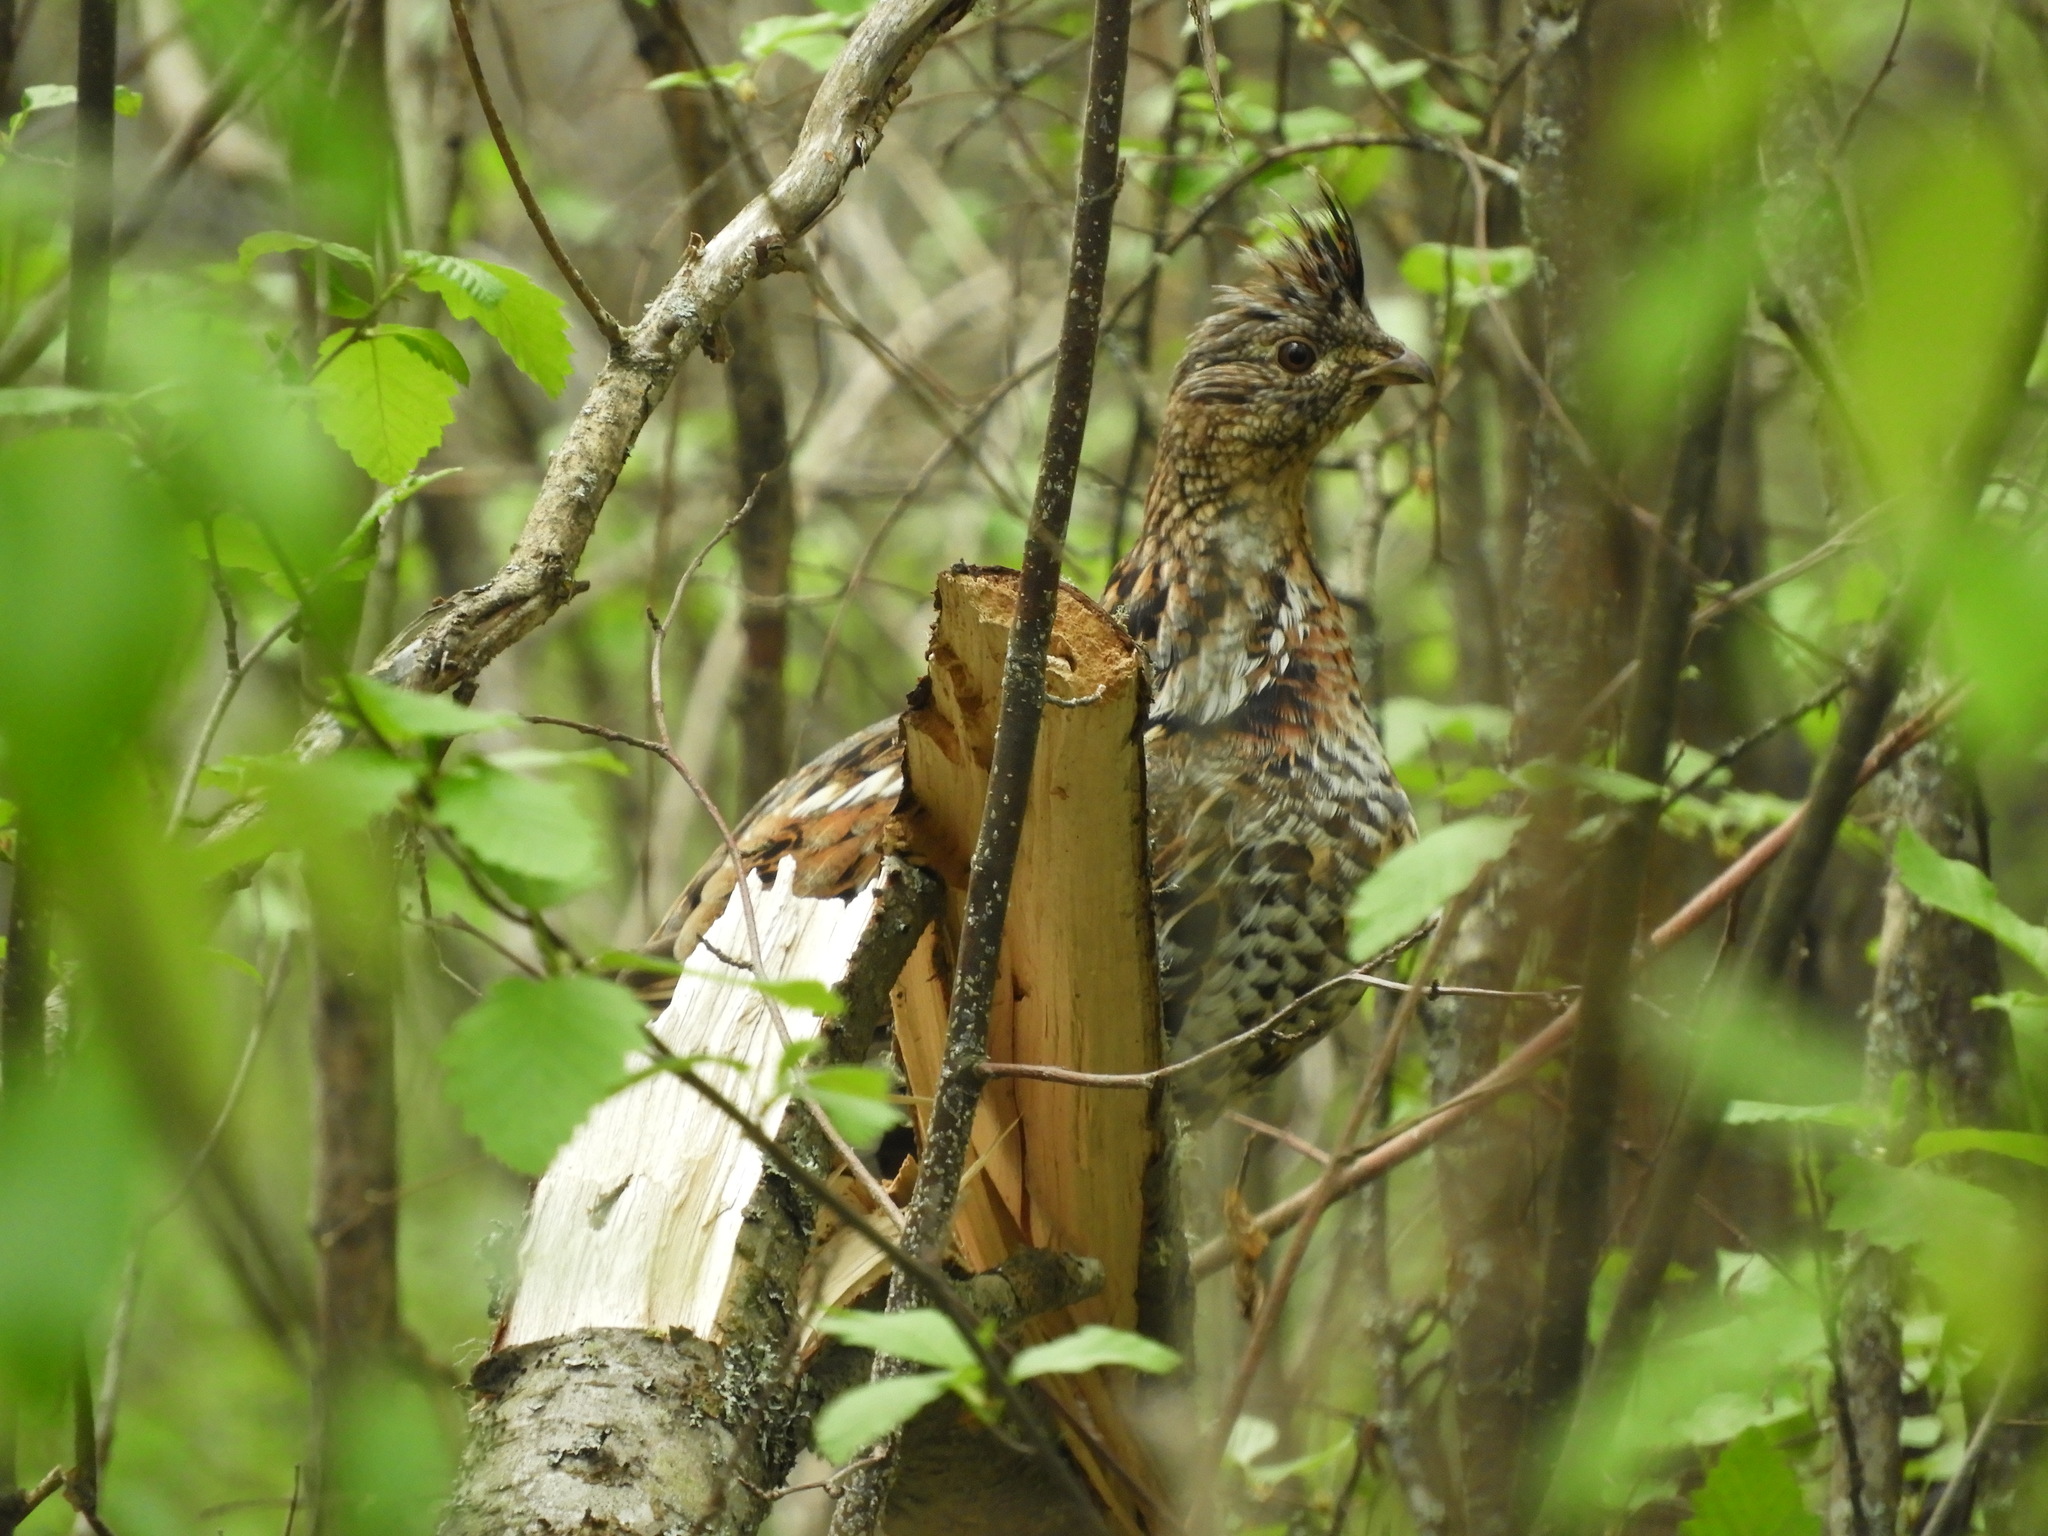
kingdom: Animalia
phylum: Chordata
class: Aves
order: Galliformes
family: Phasianidae
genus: Bonasa
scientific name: Bonasa umbellus
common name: Ruffed grouse
